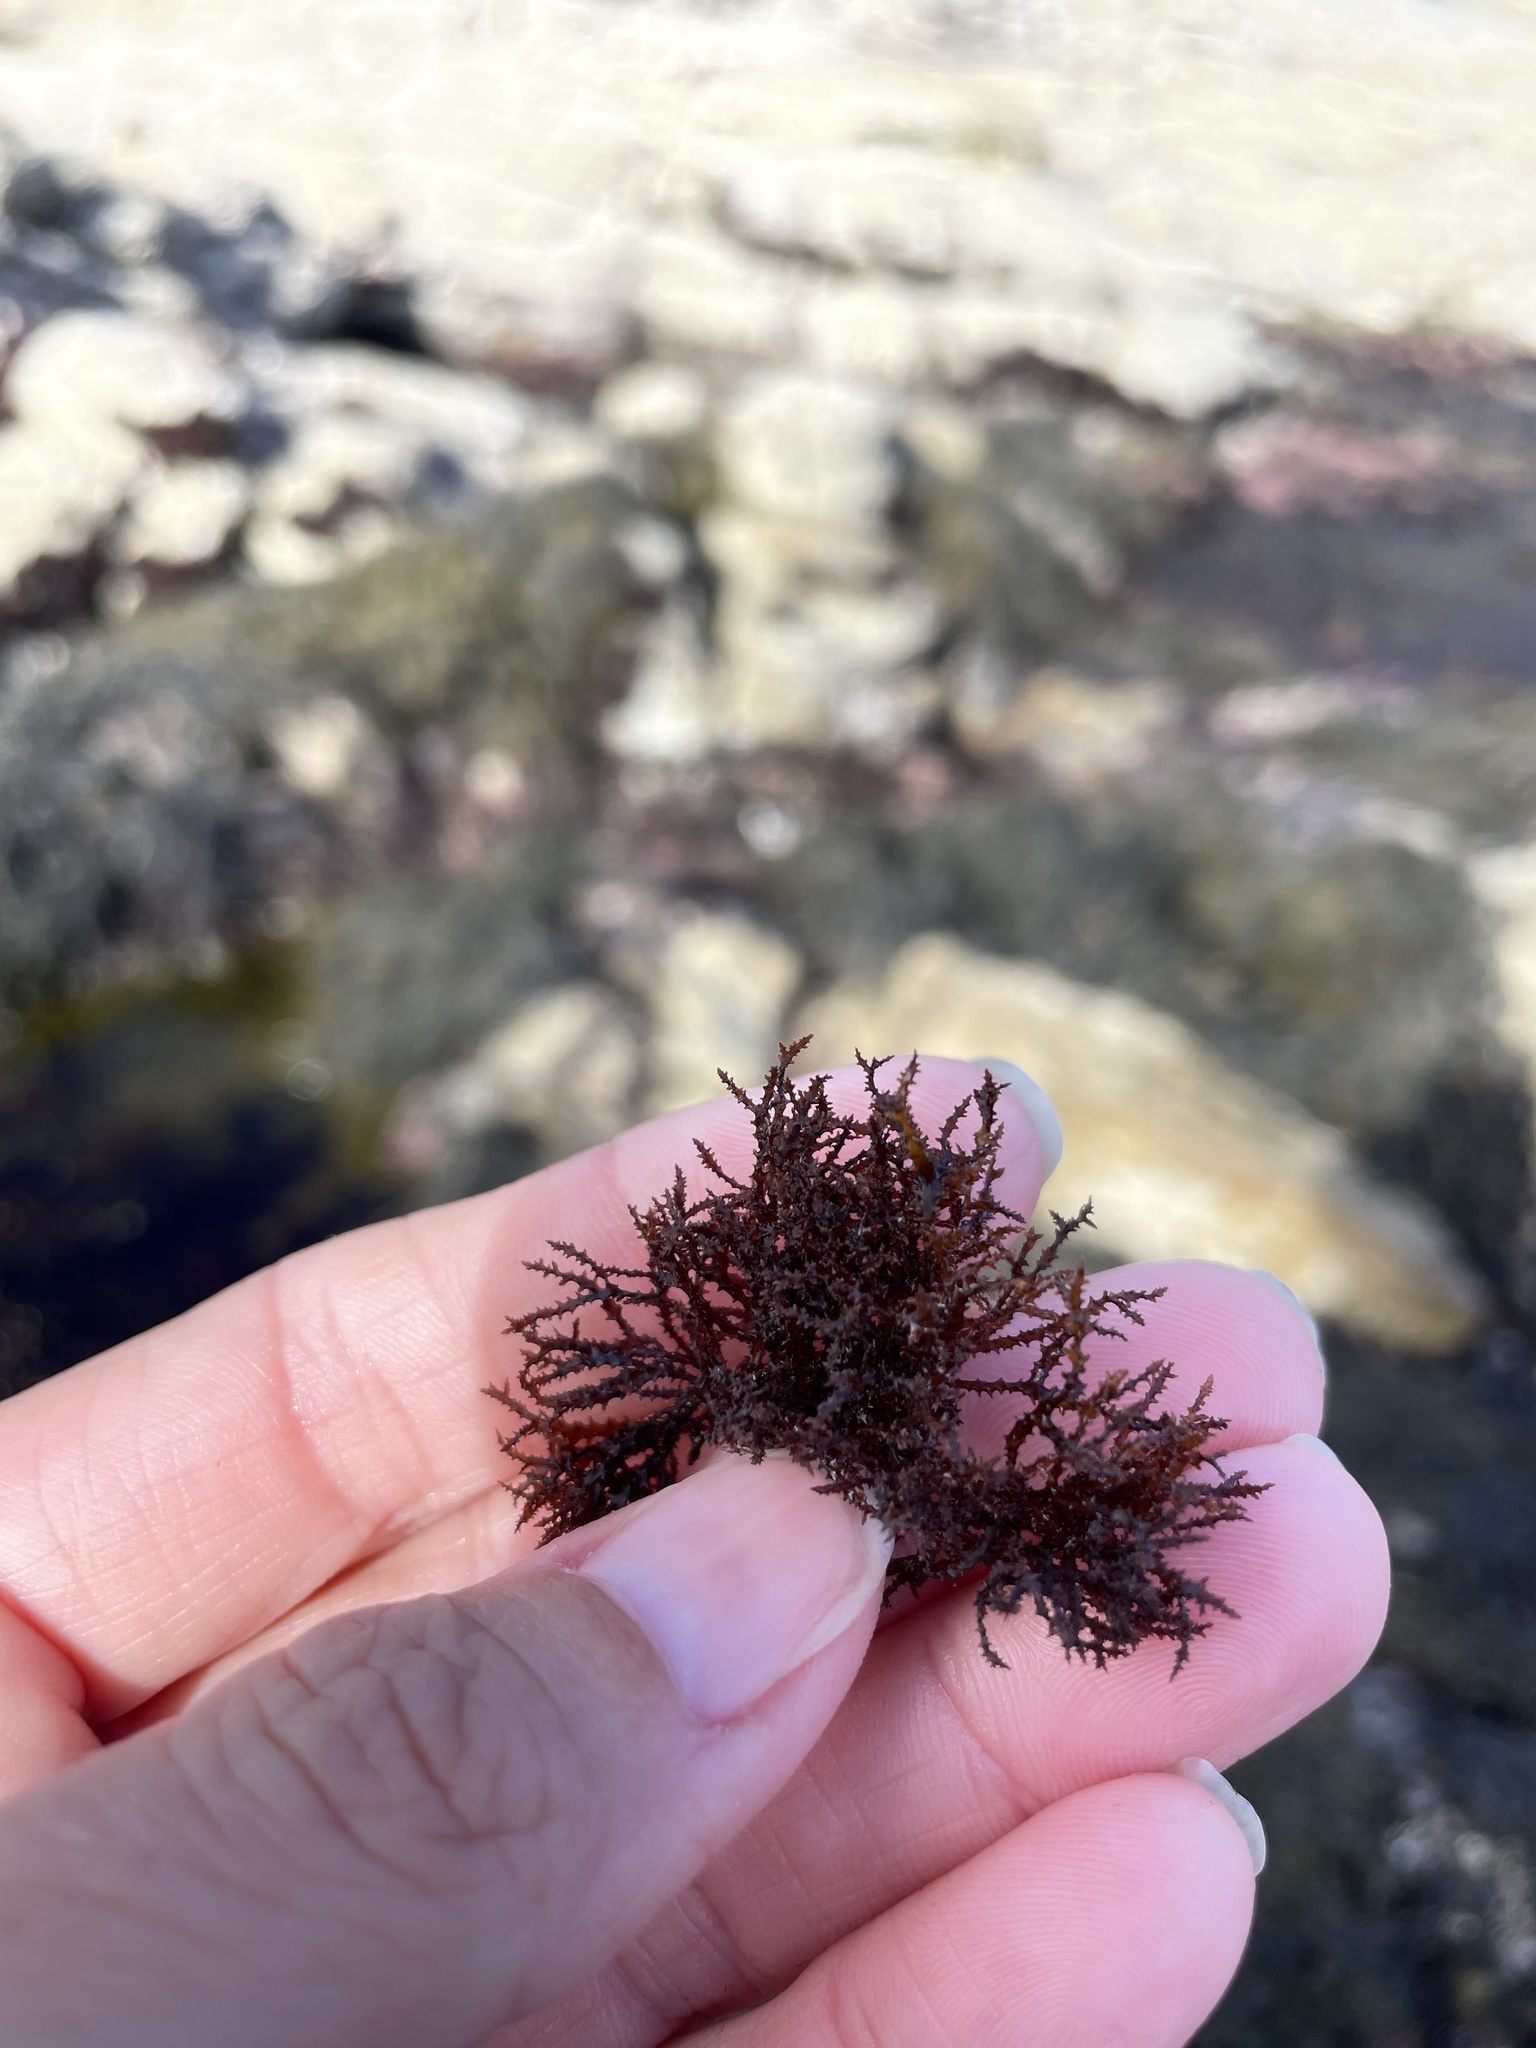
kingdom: Plantae
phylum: Rhodophyta
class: Florideophyceae
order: Gigartinales
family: Endocladiaceae
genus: Endocladia
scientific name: Endocladia muricata
